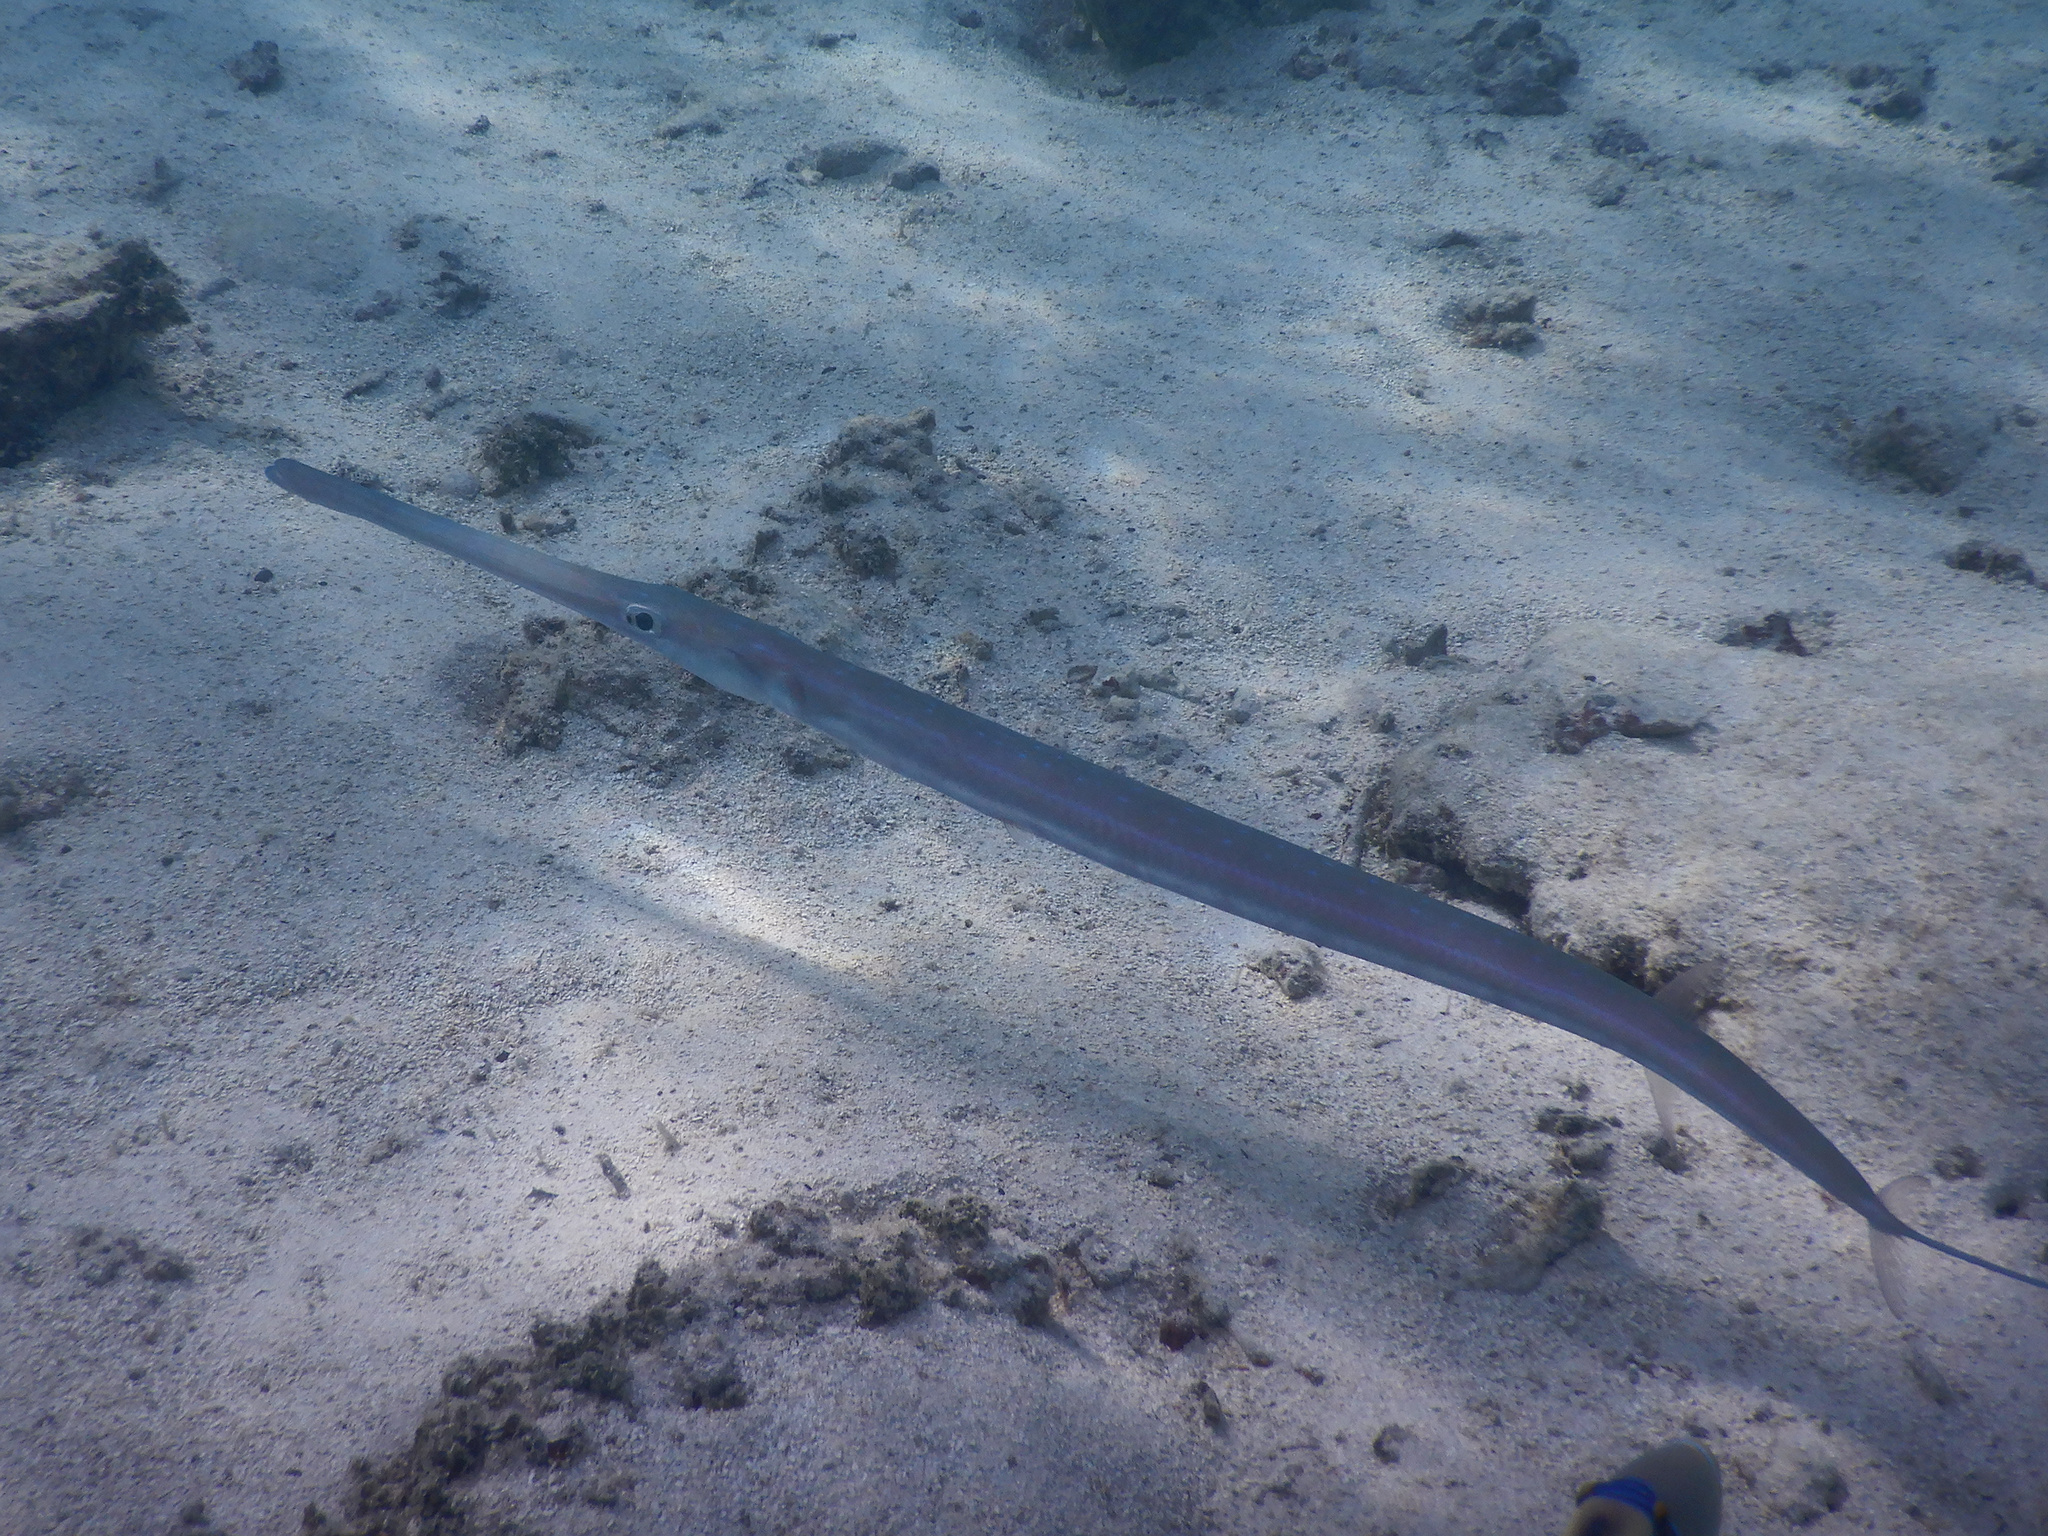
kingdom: Animalia
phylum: Chordata
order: Syngnathiformes
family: Fistulariidae
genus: Fistularia
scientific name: Fistularia commersonii
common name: Bluespotted cornetfish
